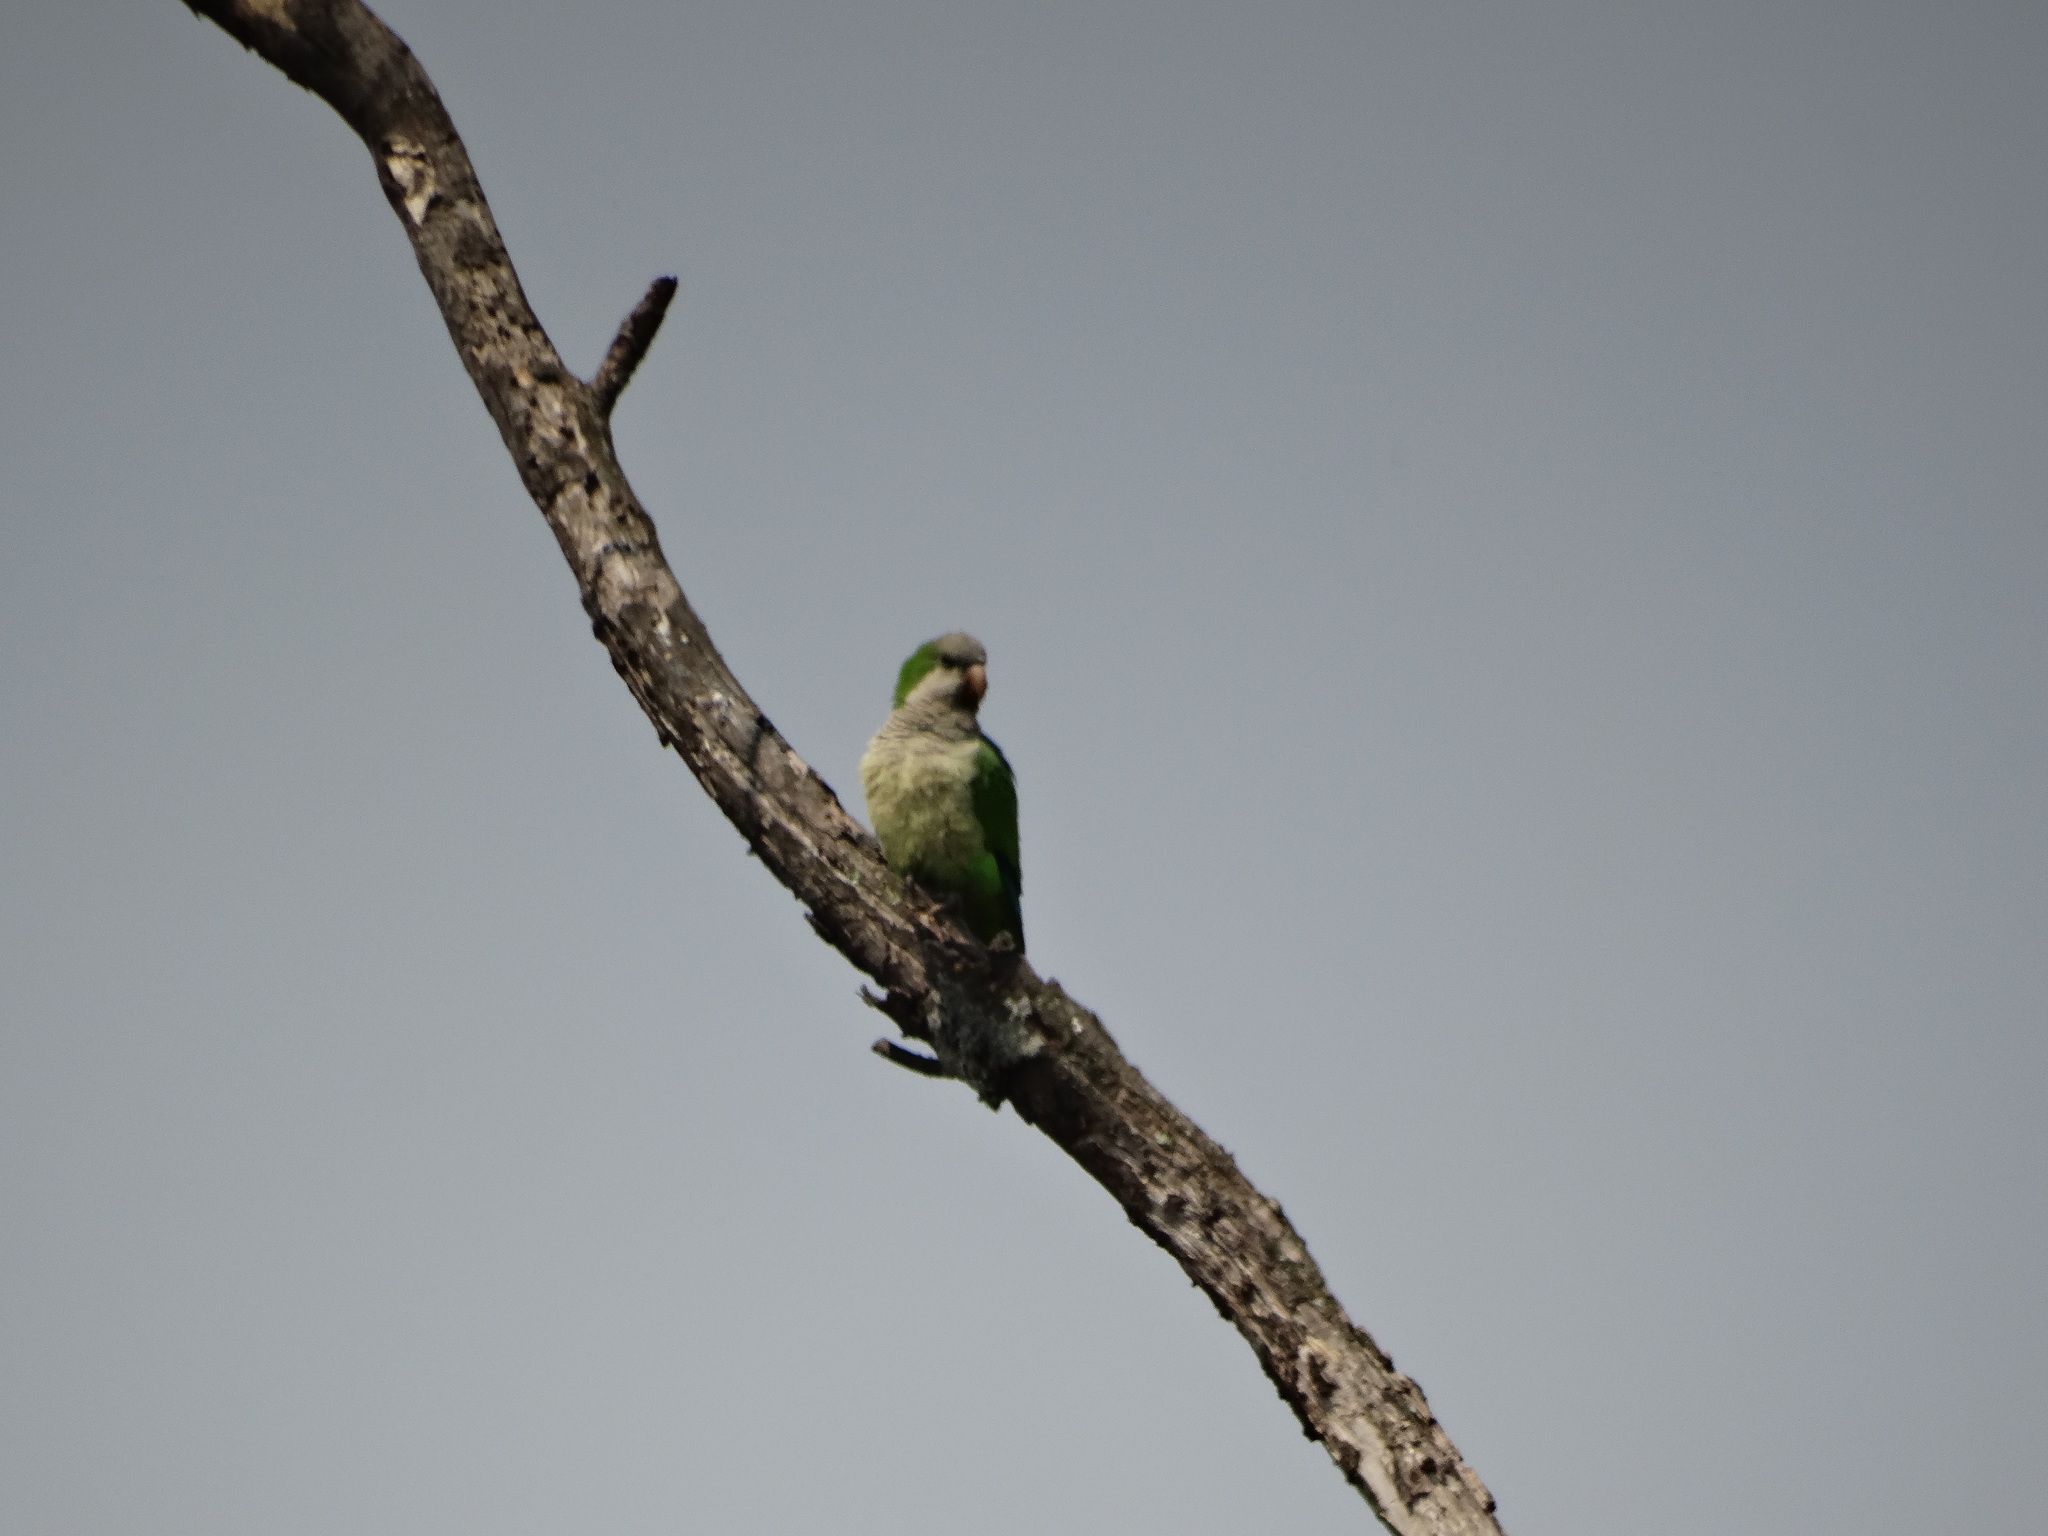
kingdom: Animalia
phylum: Chordata
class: Aves
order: Psittaciformes
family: Psittacidae
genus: Myiopsitta
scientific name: Myiopsitta monachus
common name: Monk parakeet
